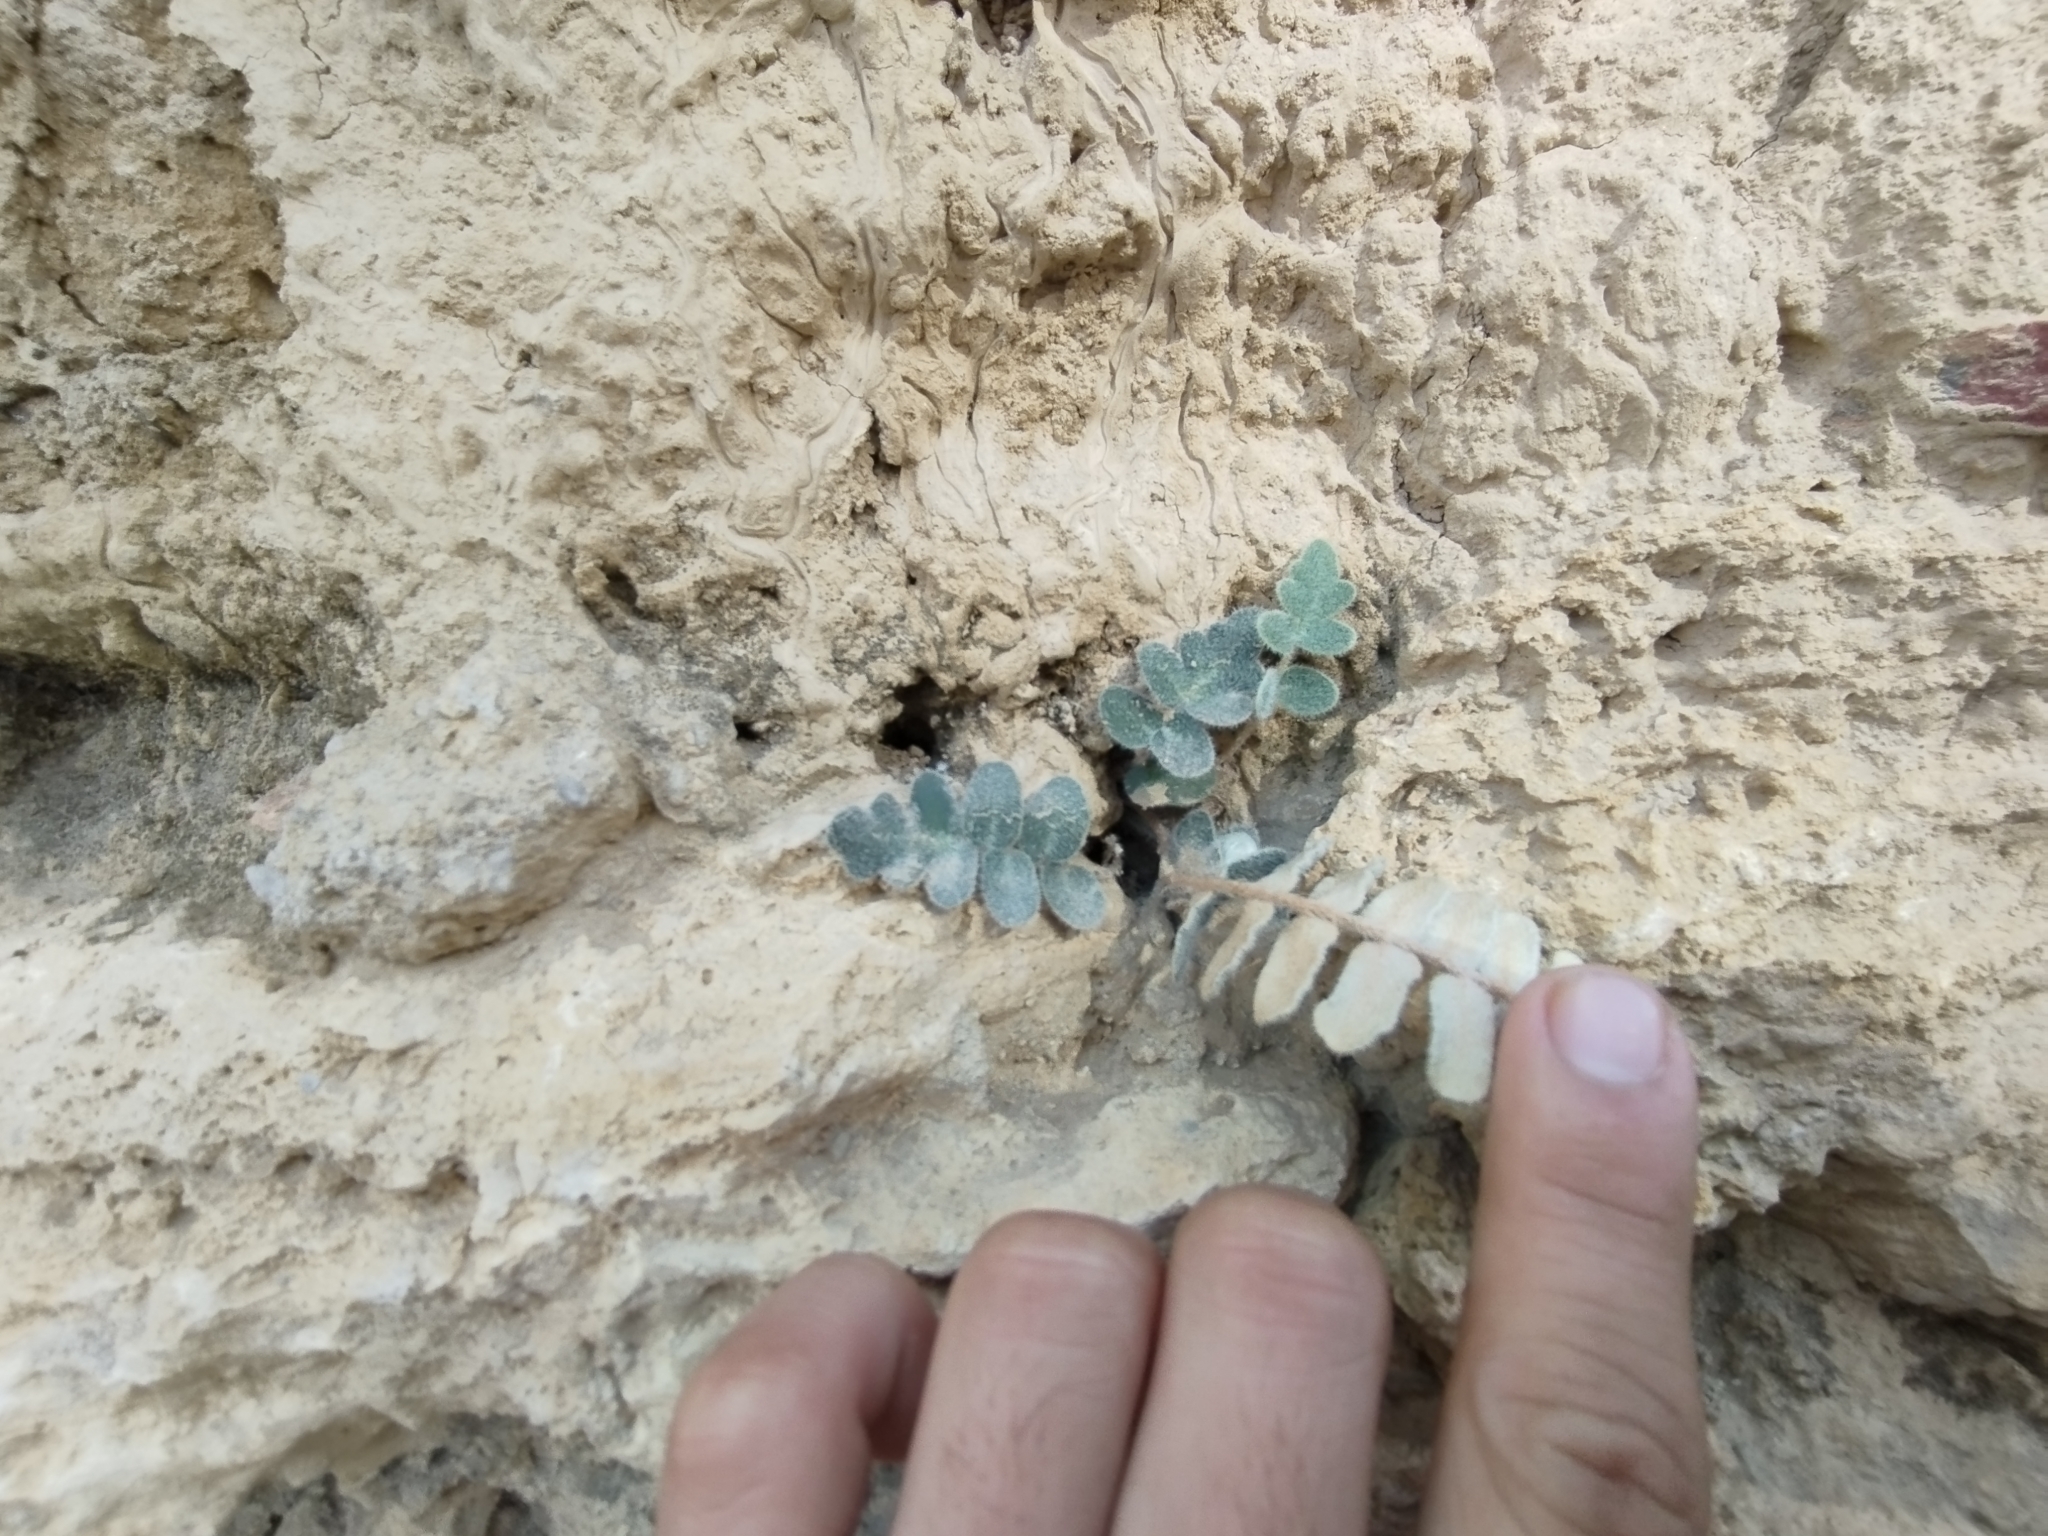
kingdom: Plantae
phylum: Tracheophyta
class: Polypodiopsida
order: Polypodiales
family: Pteridaceae
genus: Astrolepis
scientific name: Astrolepis sinuata
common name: Wavy scaly cloakfern
